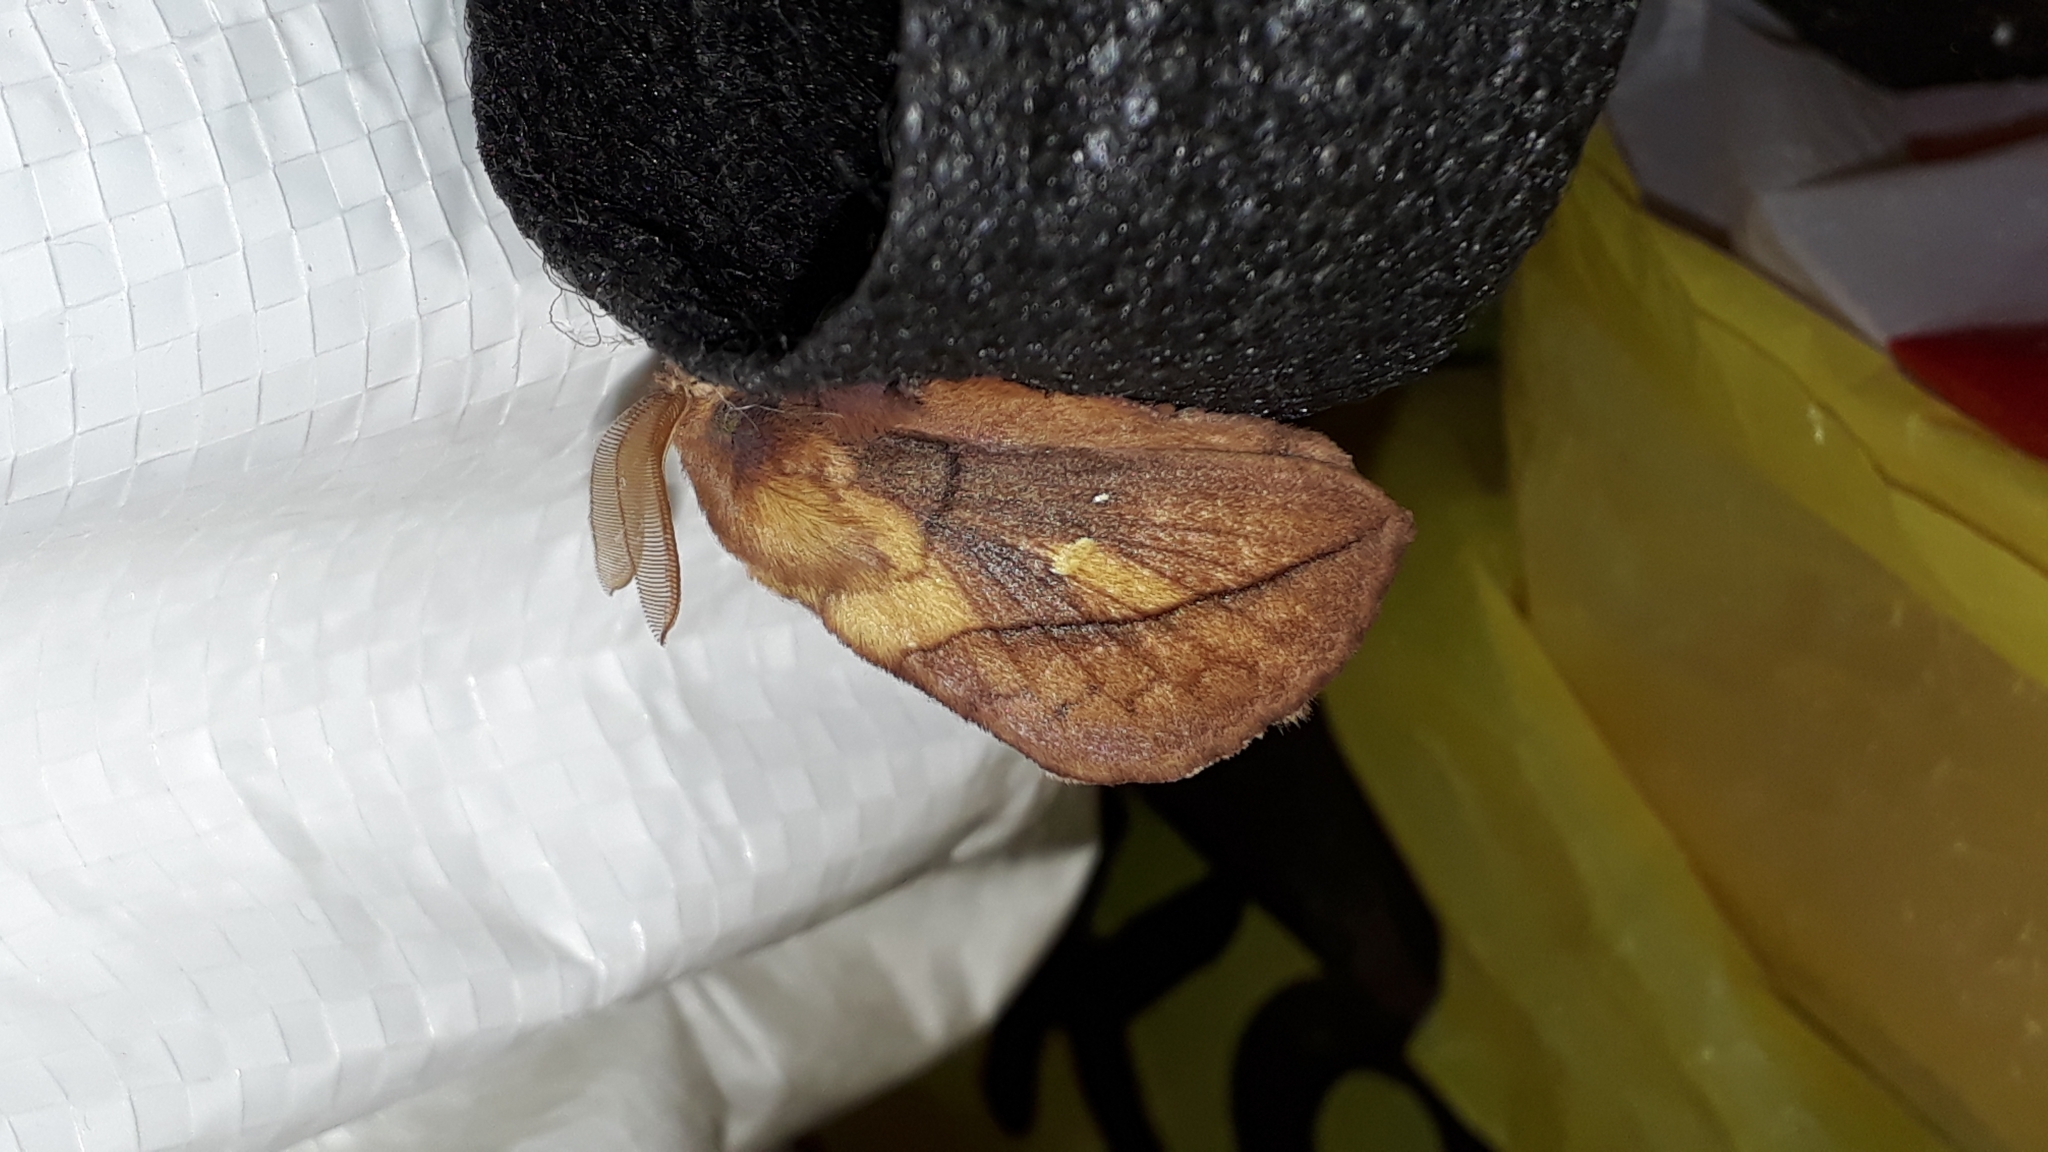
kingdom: Animalia
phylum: Arthropoda
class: Insecta
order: Lepidoptera
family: Lasiocampidae
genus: Euthrix
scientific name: Euthrix potatoria
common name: Drinker
